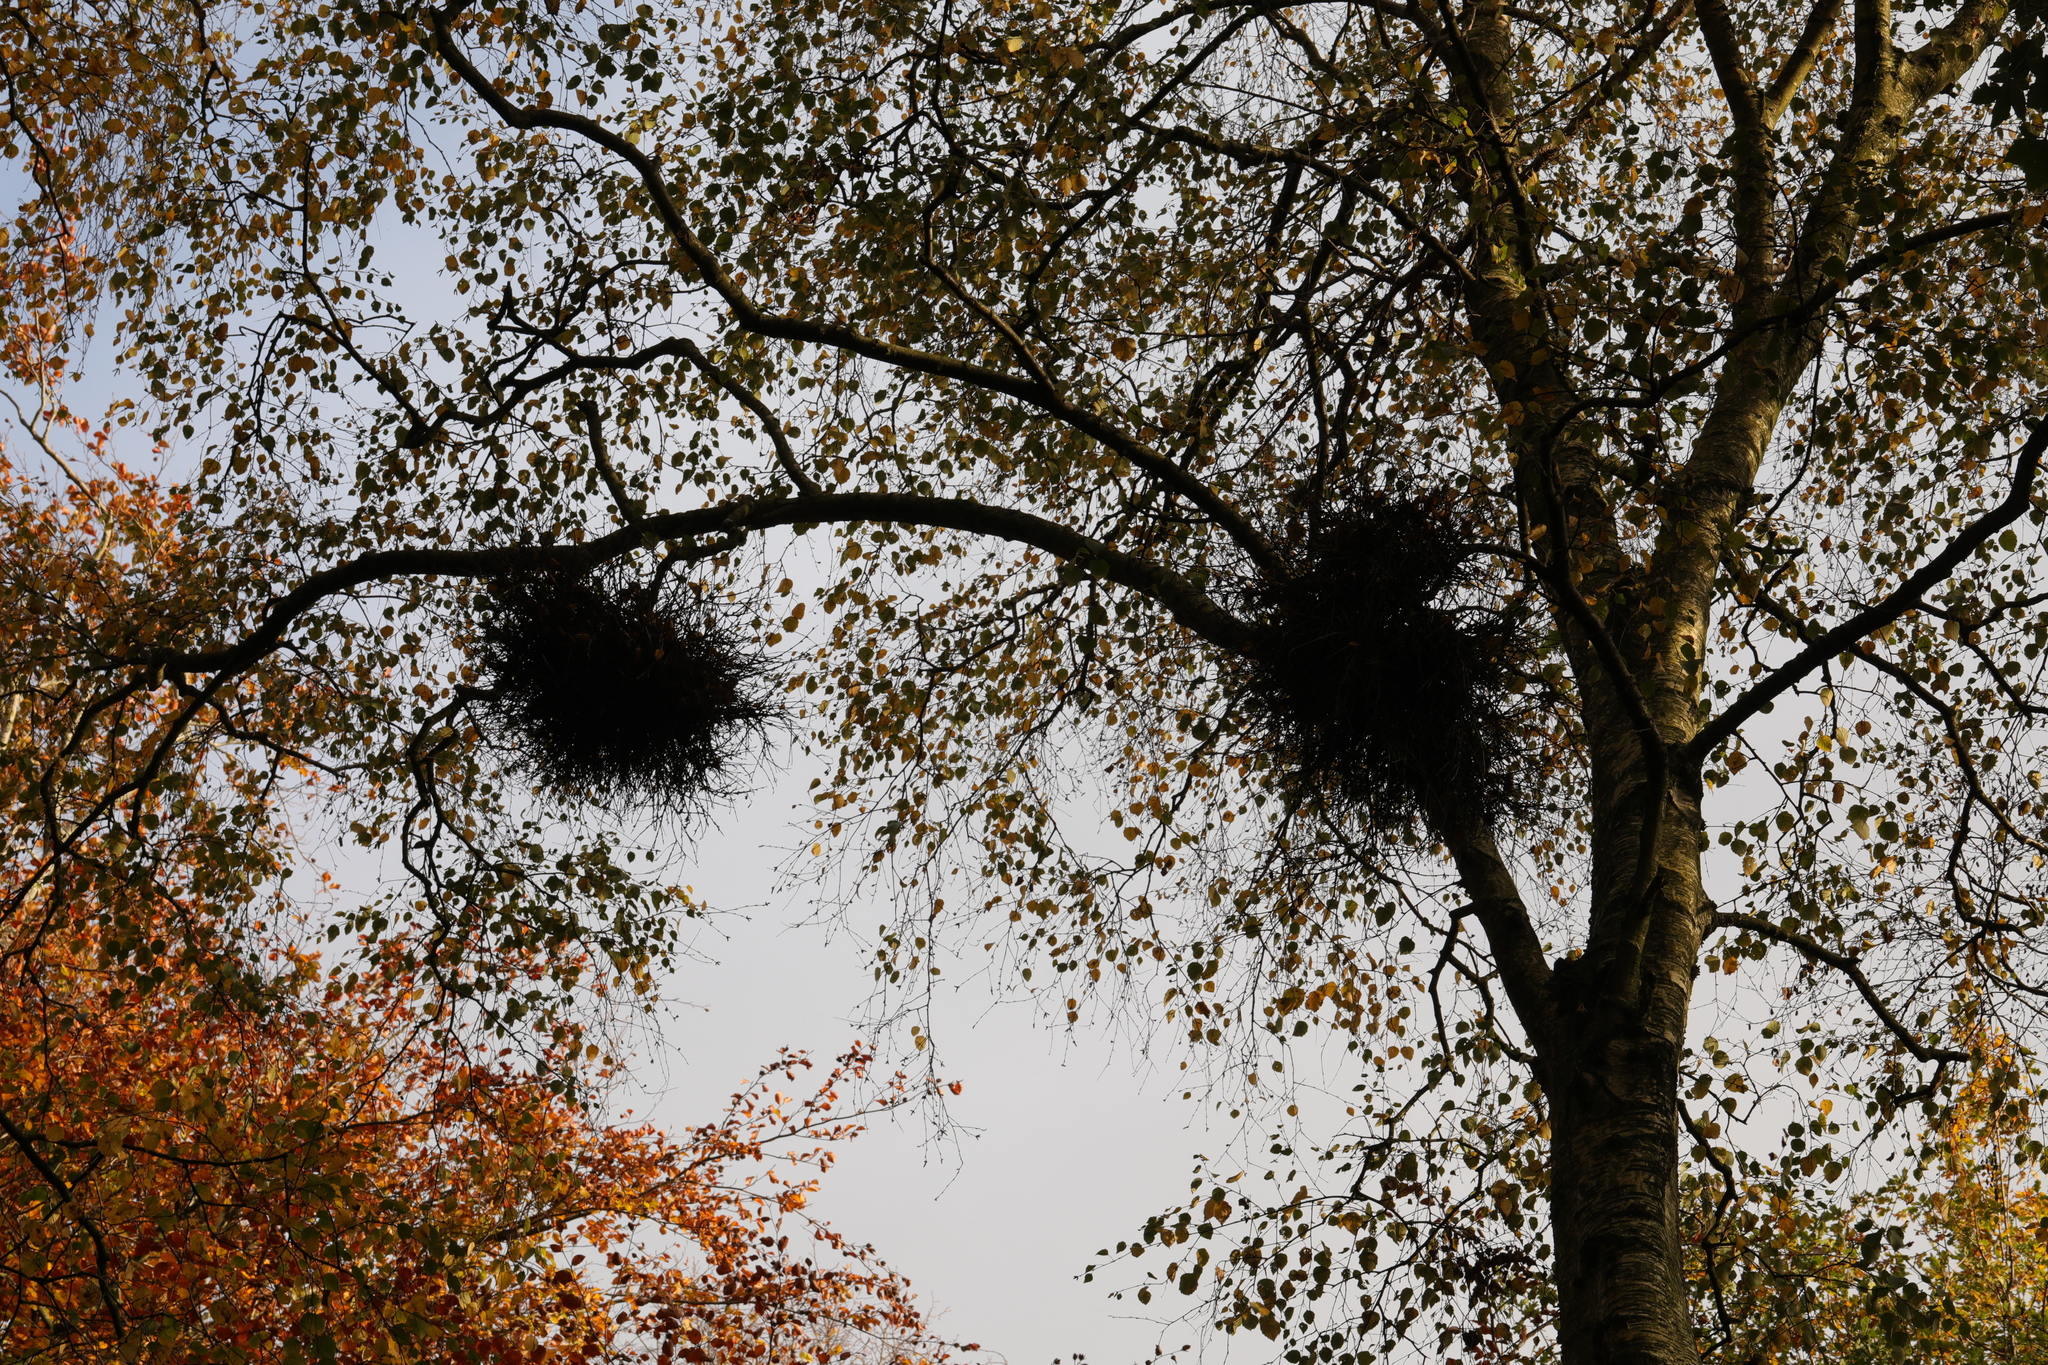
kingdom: Fungi
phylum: Ascomycota
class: Taphrinomycetes
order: Taphrinales
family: Taphrinaceae
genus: Taphrina
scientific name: Taphrina betulina
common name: Birch besom
